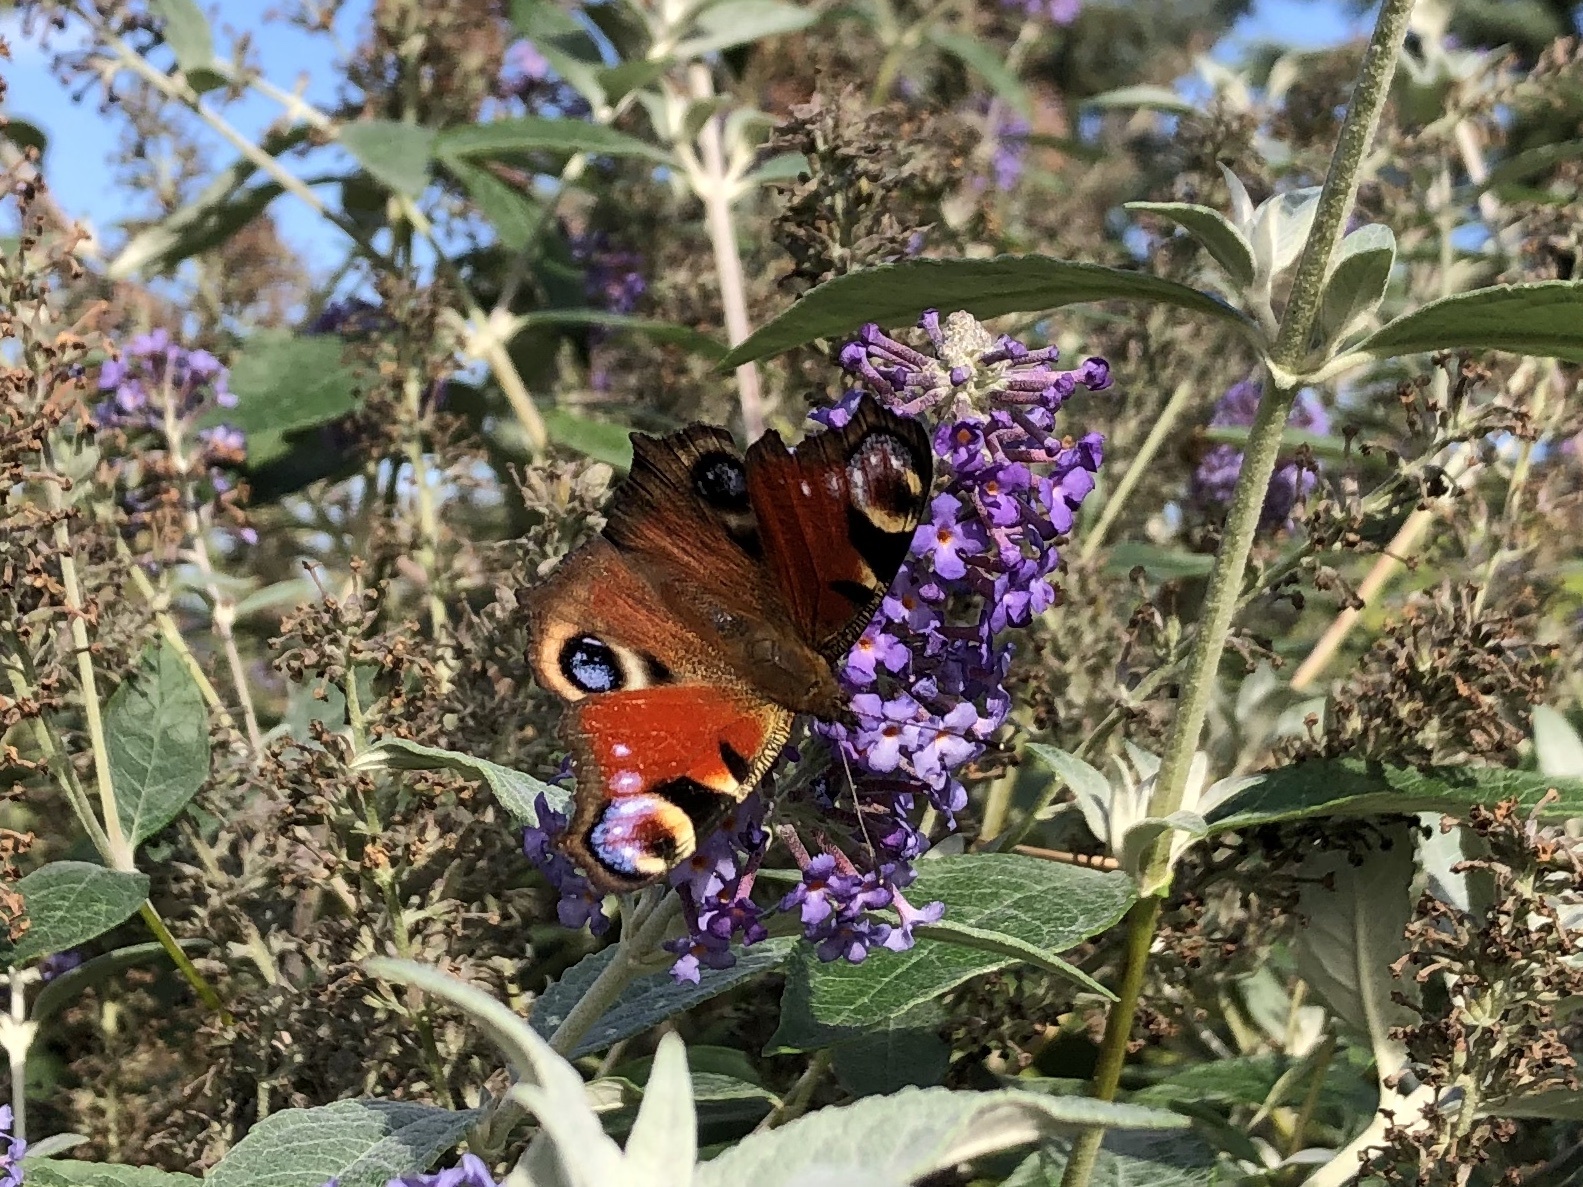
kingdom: Animalia
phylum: Arthropoda
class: Insecta
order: Lepidoptera
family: Nymphalidae
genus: Aglais
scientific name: Aglais io
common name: Peacock
